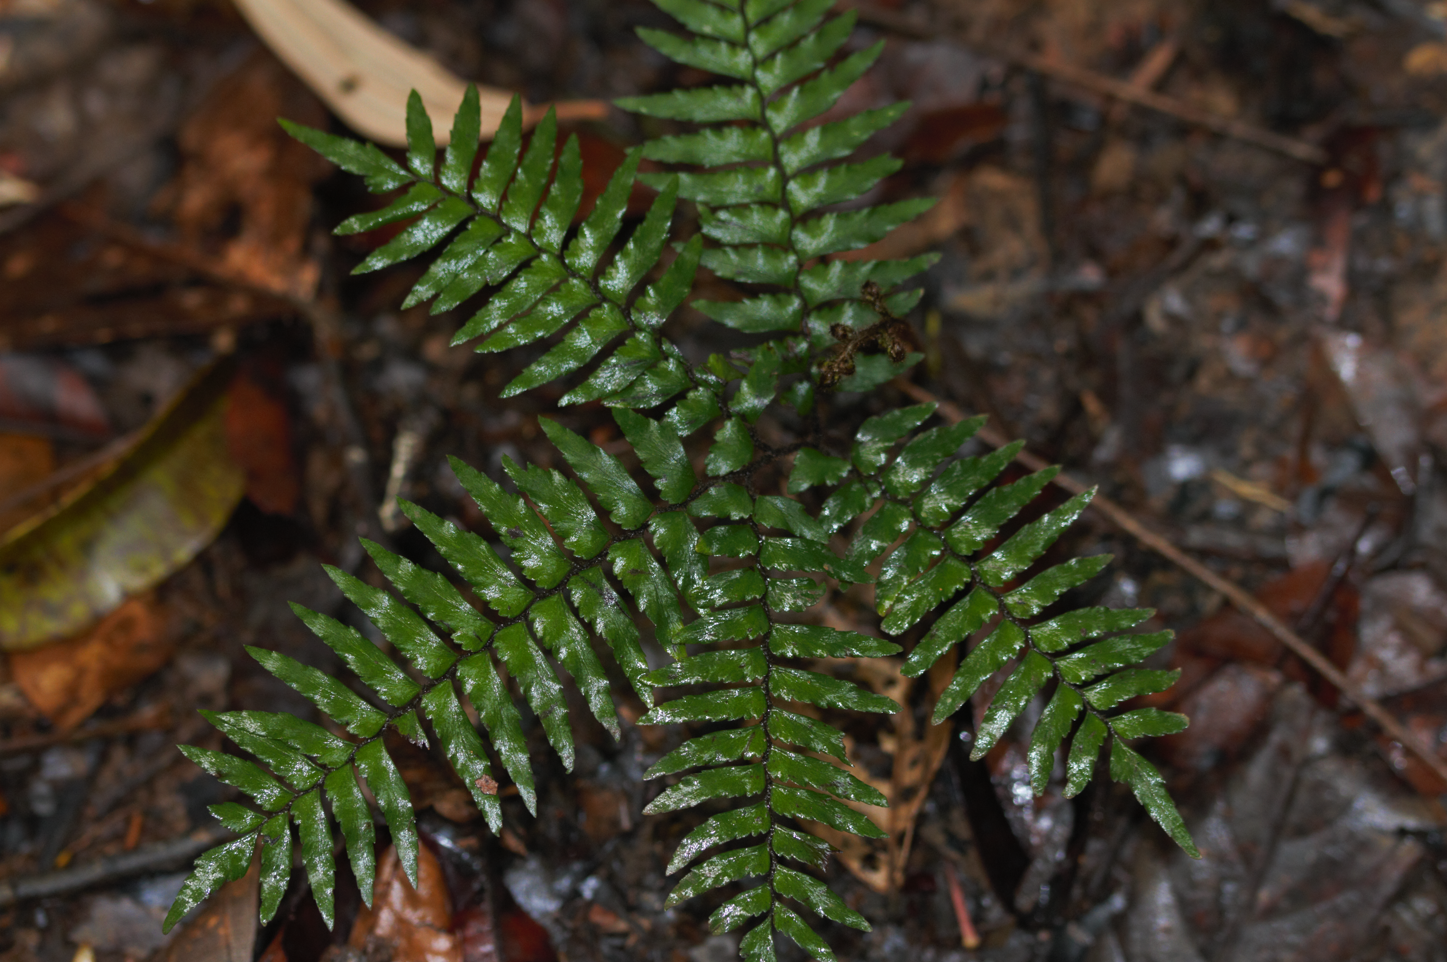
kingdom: Plantae
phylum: Tracheophyta
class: Polypodiopsida
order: Polypodiales
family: Pteridaceae
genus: Adiantum
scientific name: Adiantum fuliginosum
